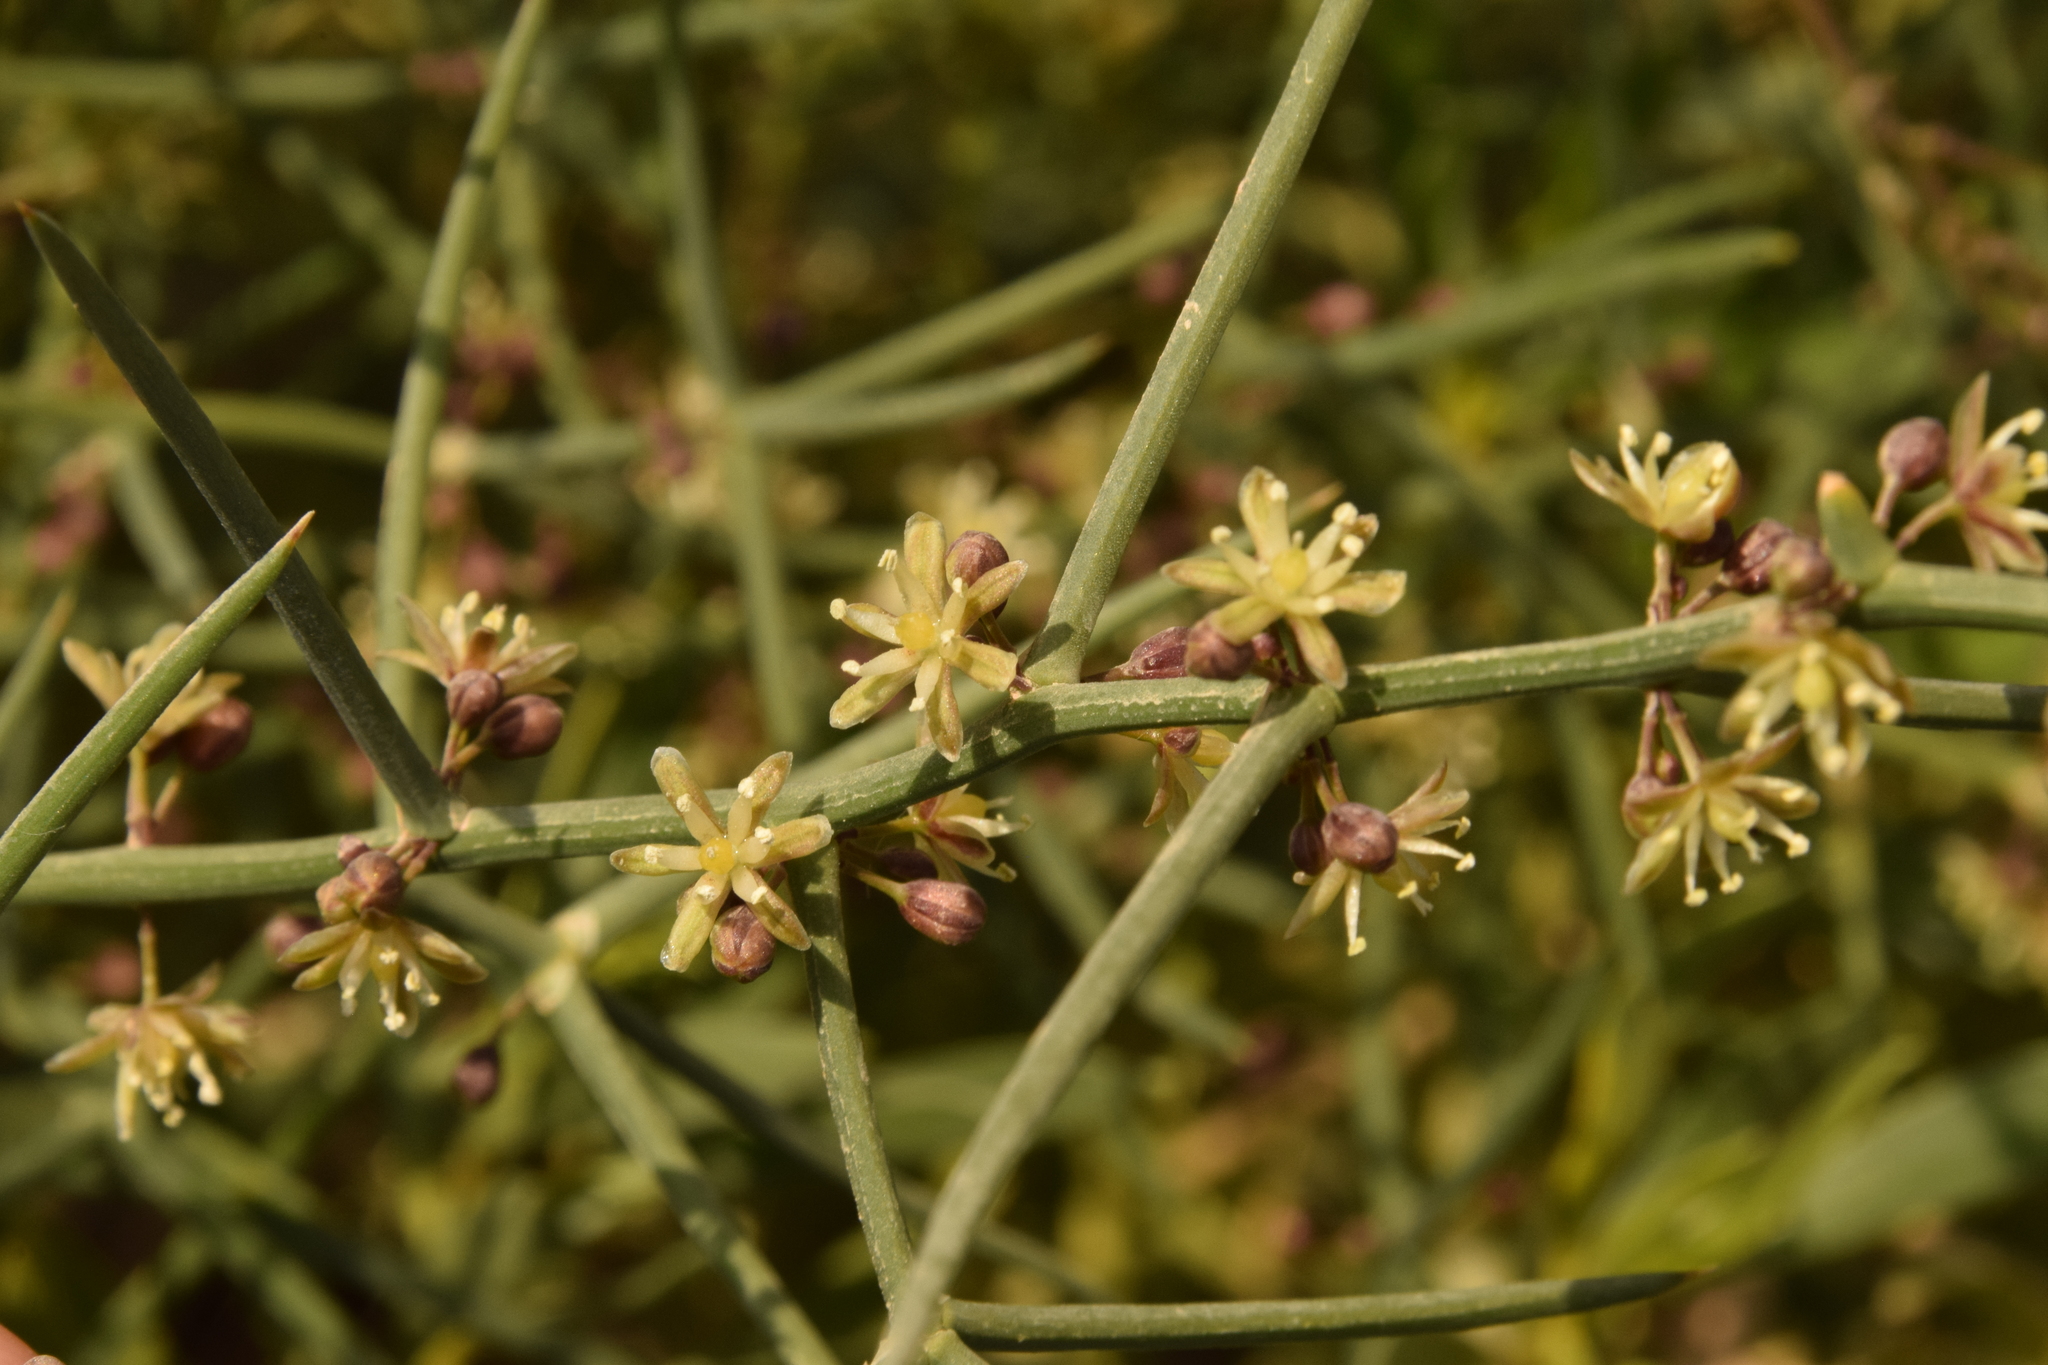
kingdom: Plantae
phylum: Tracheophyta
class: Liliopsida
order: Asparagales
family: Asparagaceae
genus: Asparagus
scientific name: Asparagus horridus
